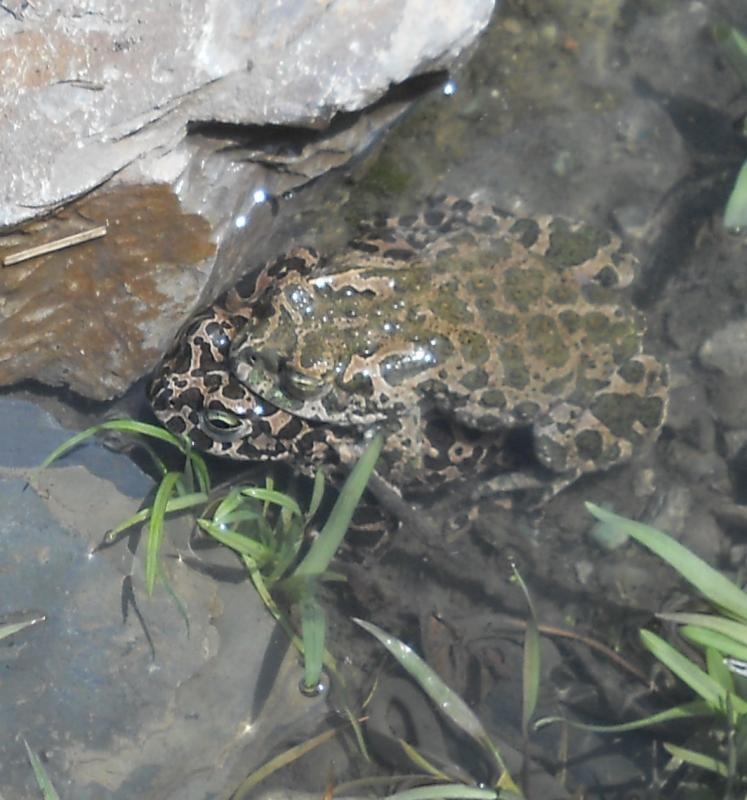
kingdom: Animalia
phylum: Chordata
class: Amphibia
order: Anura
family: Bufonidae
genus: Bufotes
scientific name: Bufotes viridis
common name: European green toad
